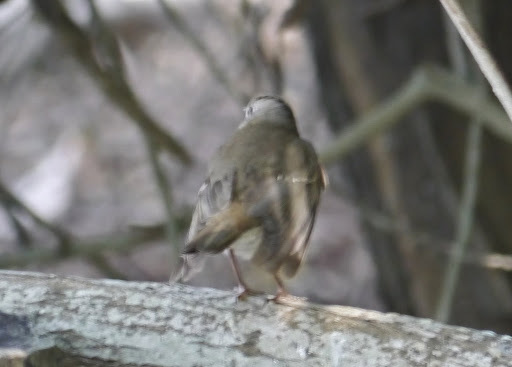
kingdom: Animalia
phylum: Chordata
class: Aves
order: Passeriformes
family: Turdidae
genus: Catharus
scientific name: Catharus minimus
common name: Grey-cheeked thrush
